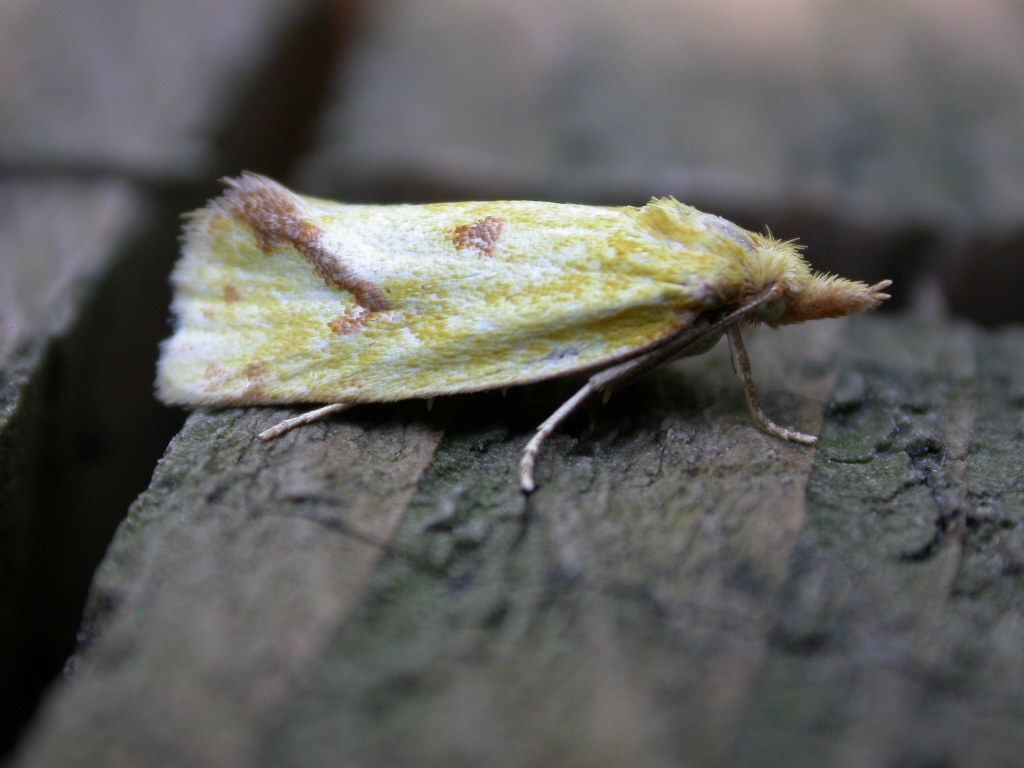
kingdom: Animalia
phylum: Arthropoda
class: Insecta
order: Lepidoptera
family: Tortricidae
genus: Agapeta
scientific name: Agapeta hamana
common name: Common yellow conch
